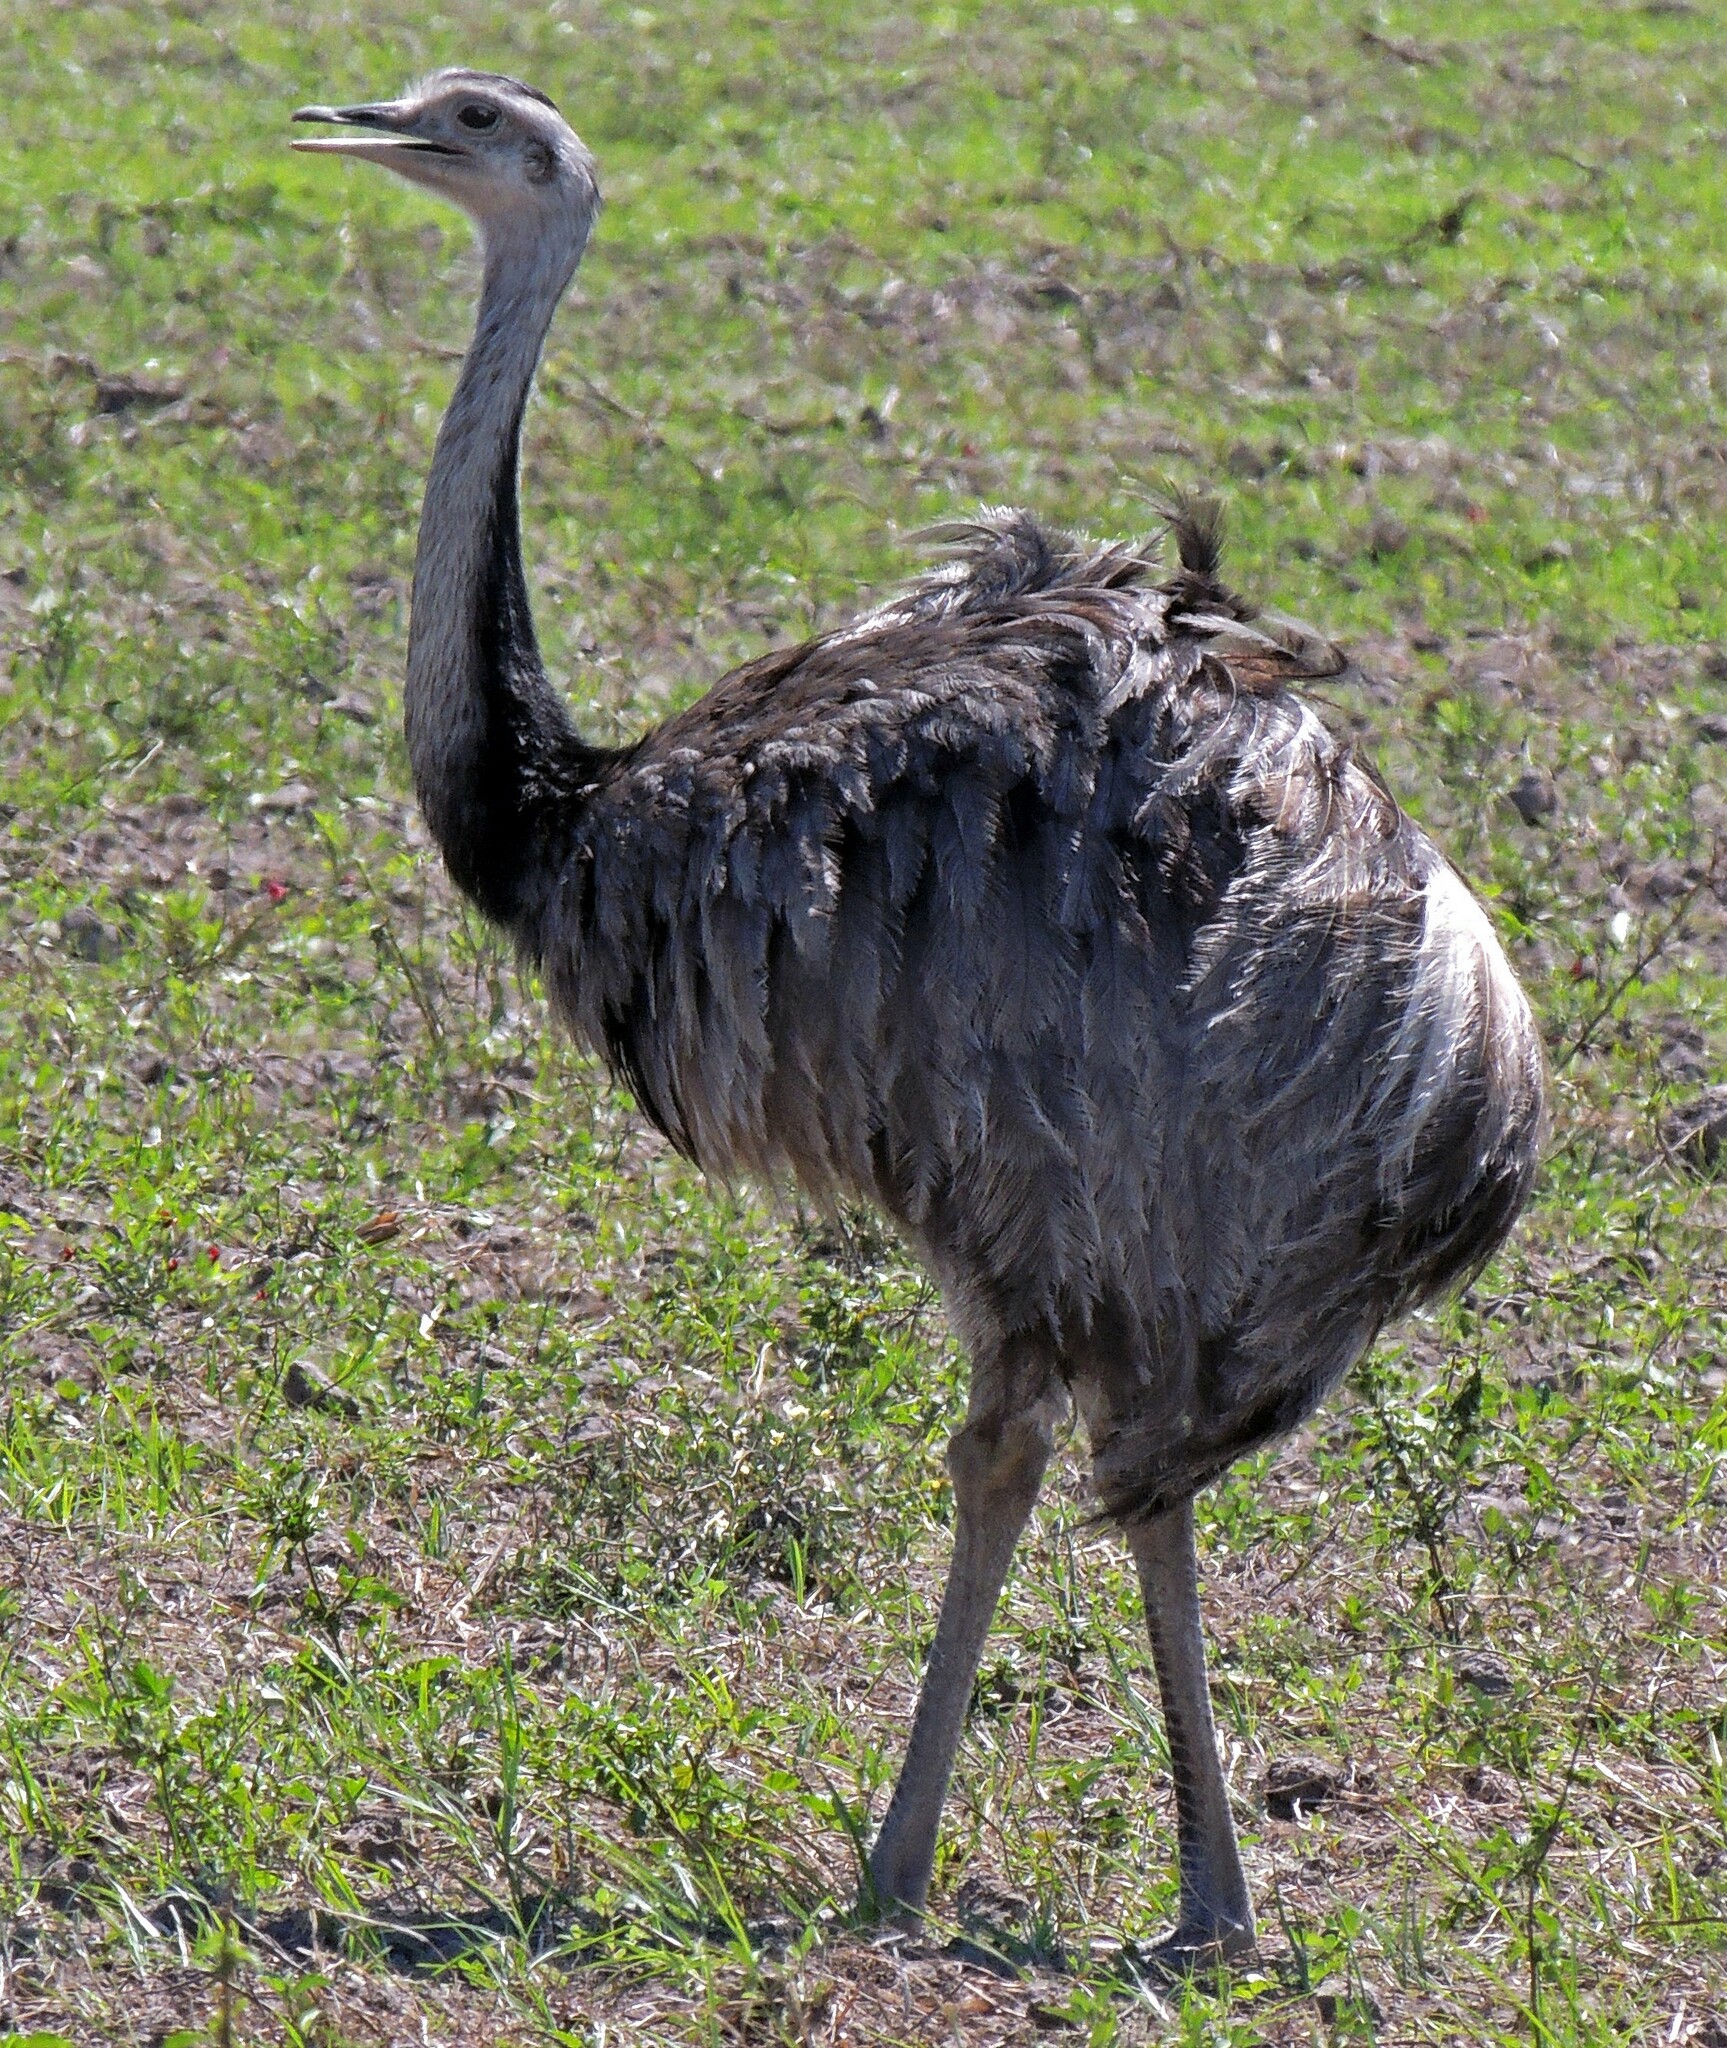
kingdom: Animalia
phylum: Chordata
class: Aves
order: Rheiformes
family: Rheidae
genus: Rhea
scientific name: Rhea americana
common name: Greater rhea
